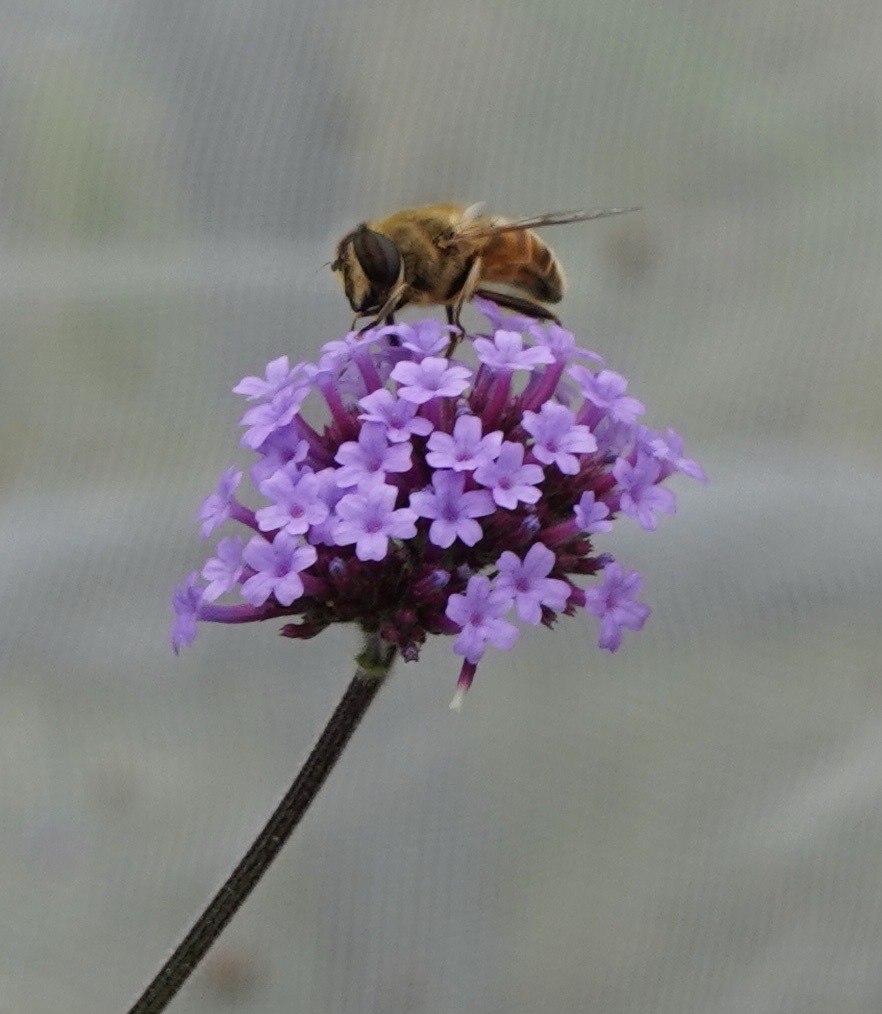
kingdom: Animalia
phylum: Arthropoda
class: Insecta
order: Diptera
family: Syrphidae
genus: Eristalis
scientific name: Eristalis tenax
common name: Drone fly
